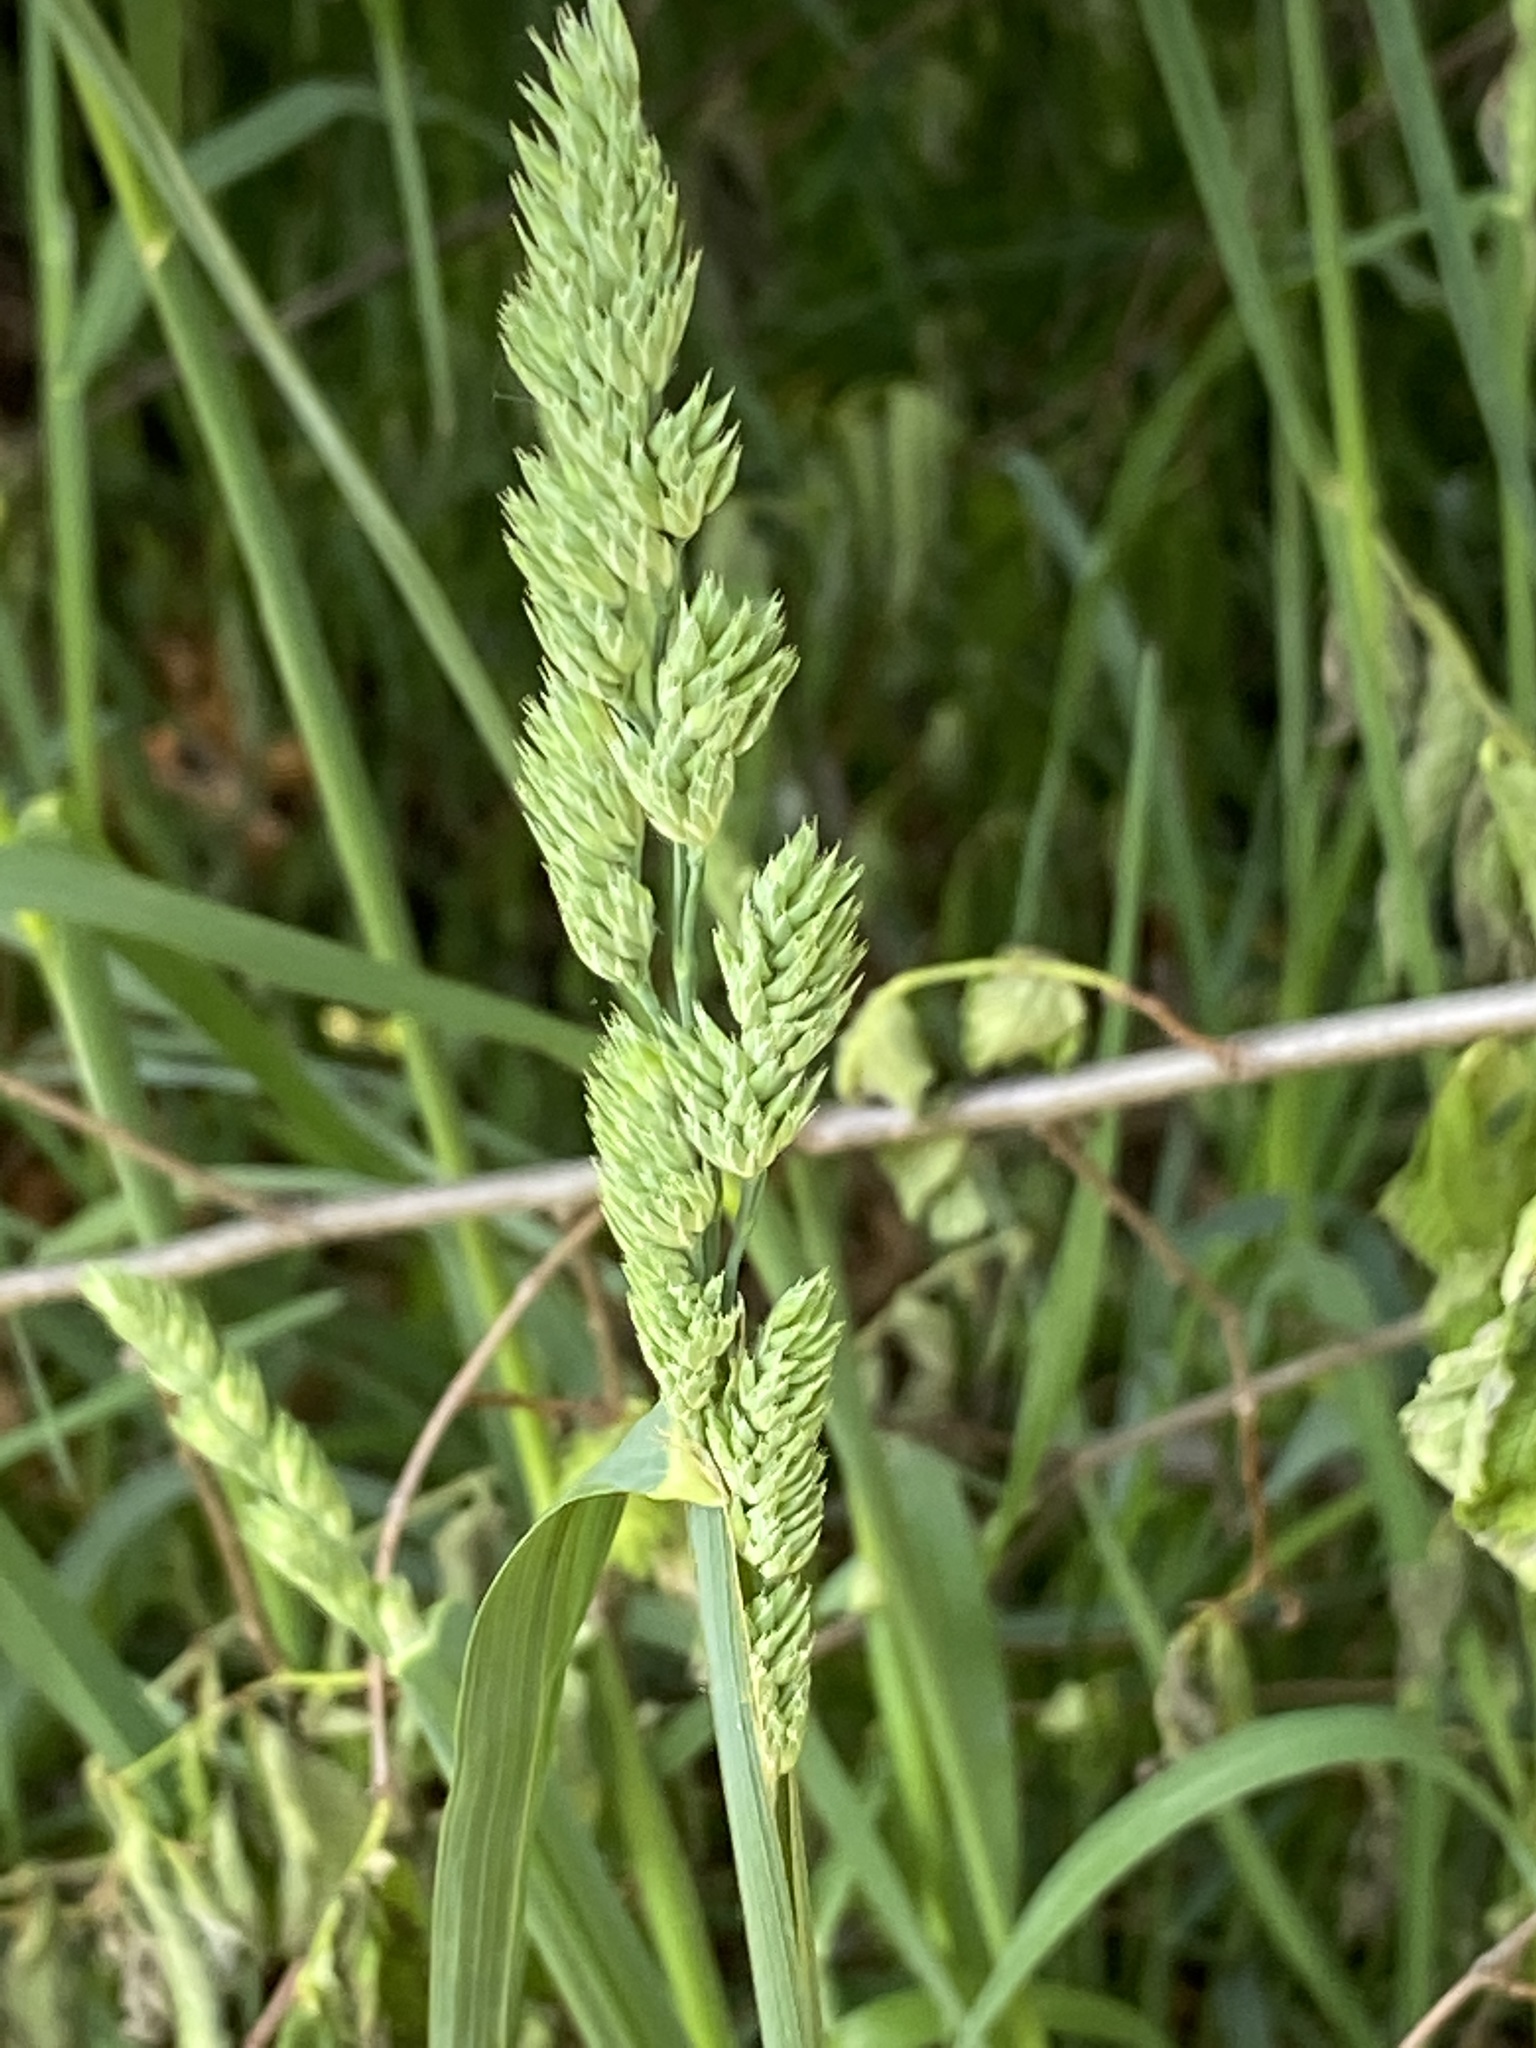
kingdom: Plantae
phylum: Tracheophyta
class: Liliopsida
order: Poales
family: Poaceae
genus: Dactylis
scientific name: Dactylis glomerata
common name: Orchardgrass
